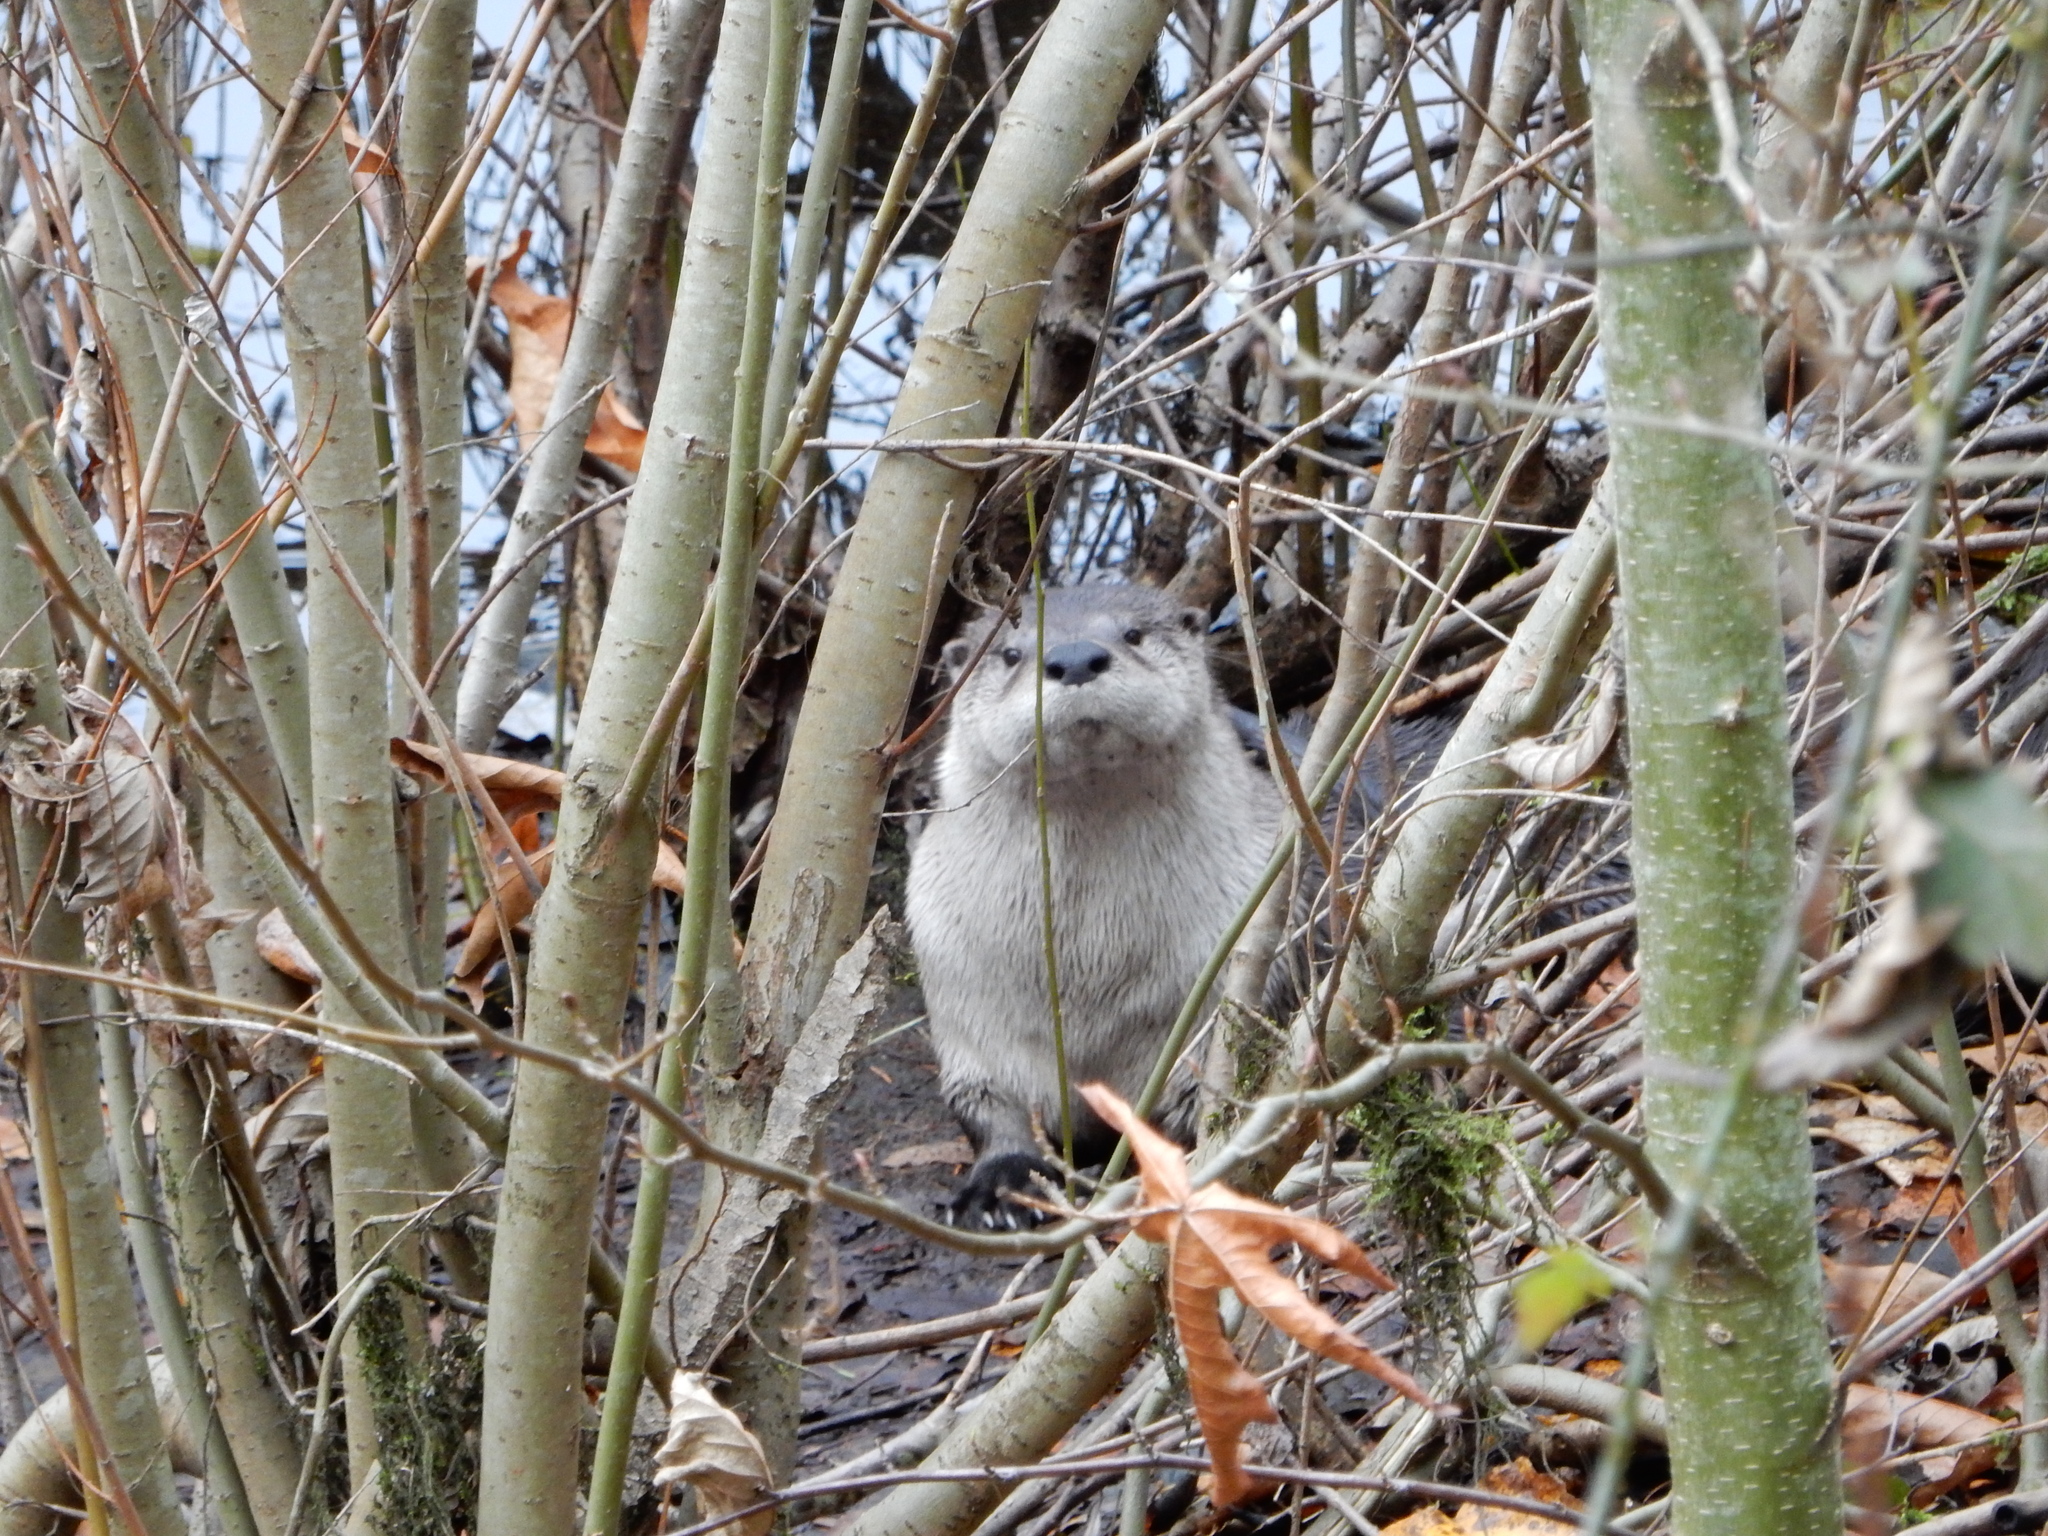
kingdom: Animalia
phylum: Chordata
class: Mammalia
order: Carnivora
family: Mustelidae
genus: Lontra
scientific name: Lontra canadensis
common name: North american river otter
